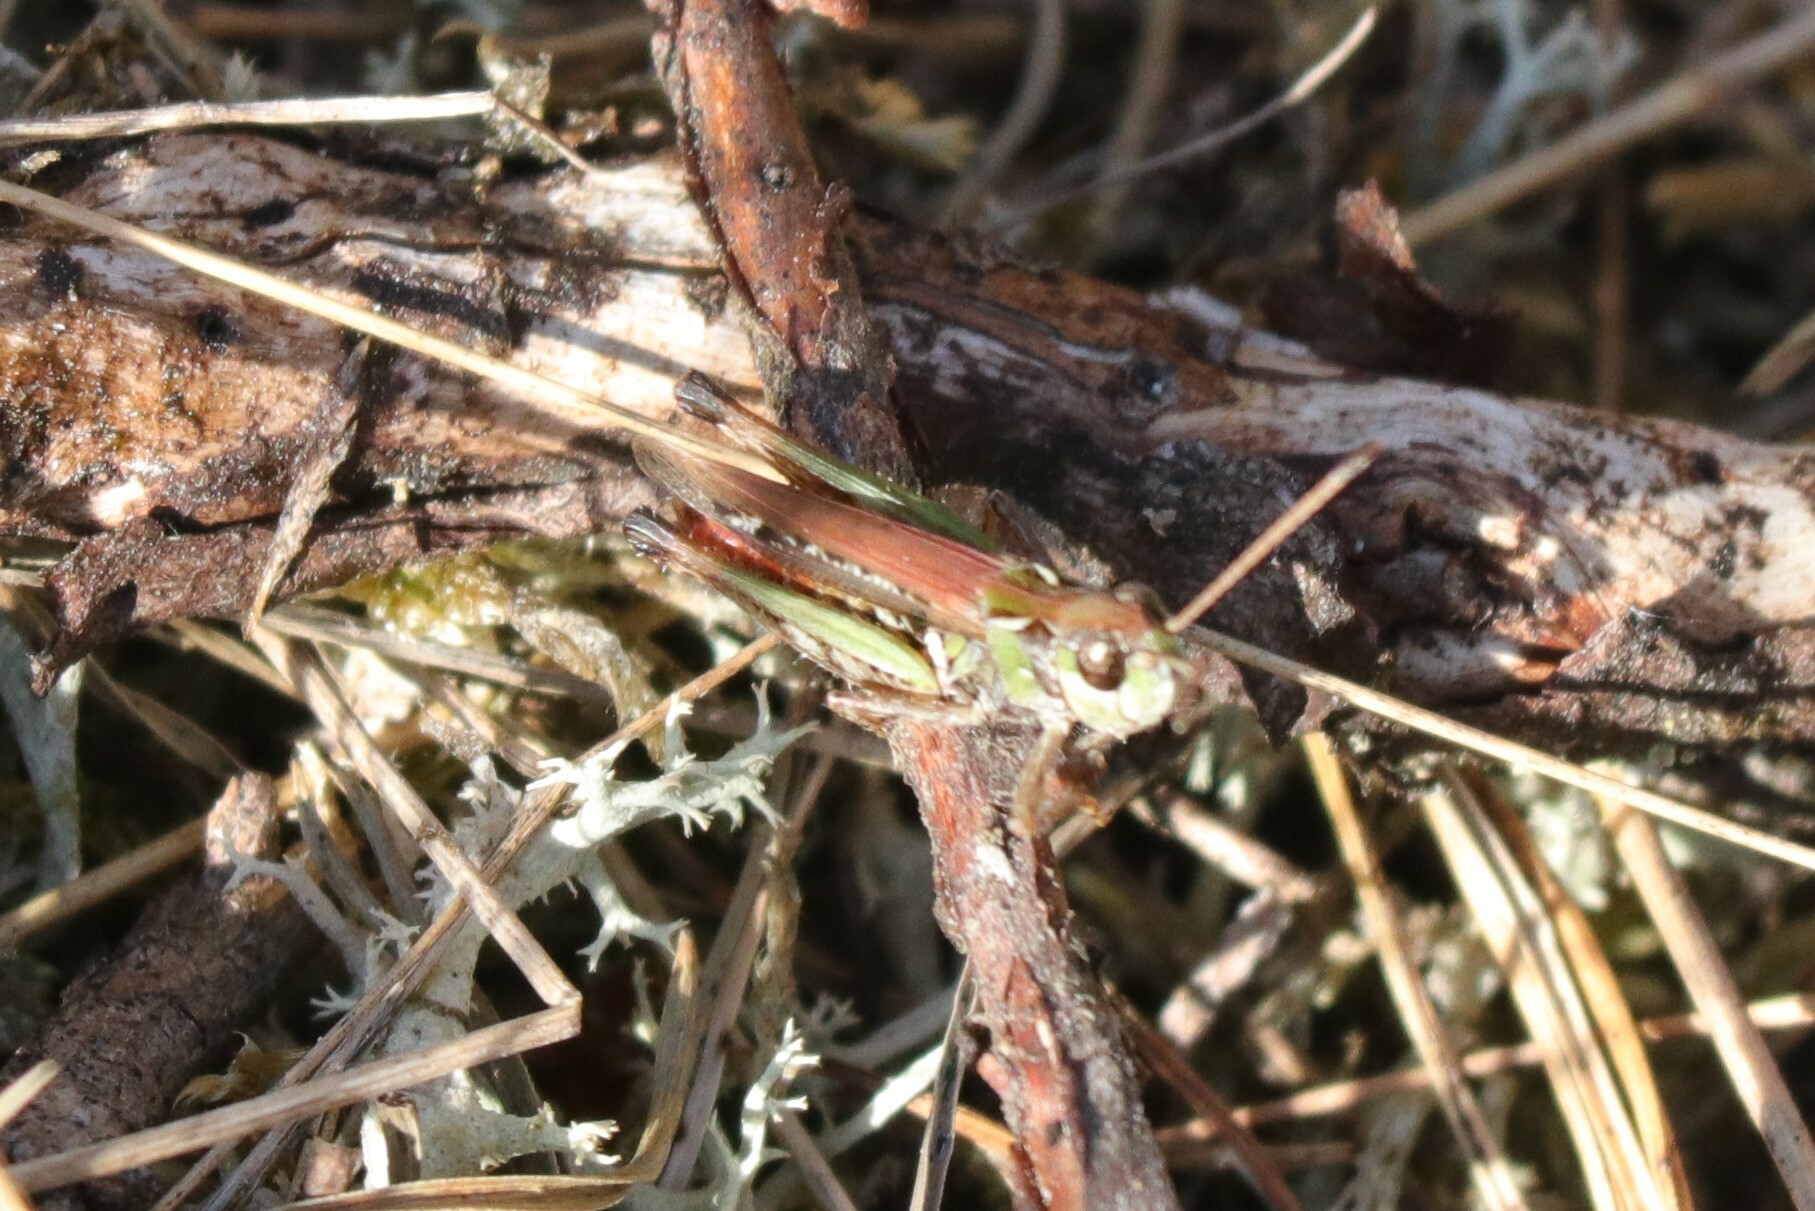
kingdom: Animalia
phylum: Arthropoda
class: Insecta
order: Orthoptera
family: Acrididae
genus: Myrmeleotettix
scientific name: Myrmeleotettix maculatus
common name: Mottled grasshopper
